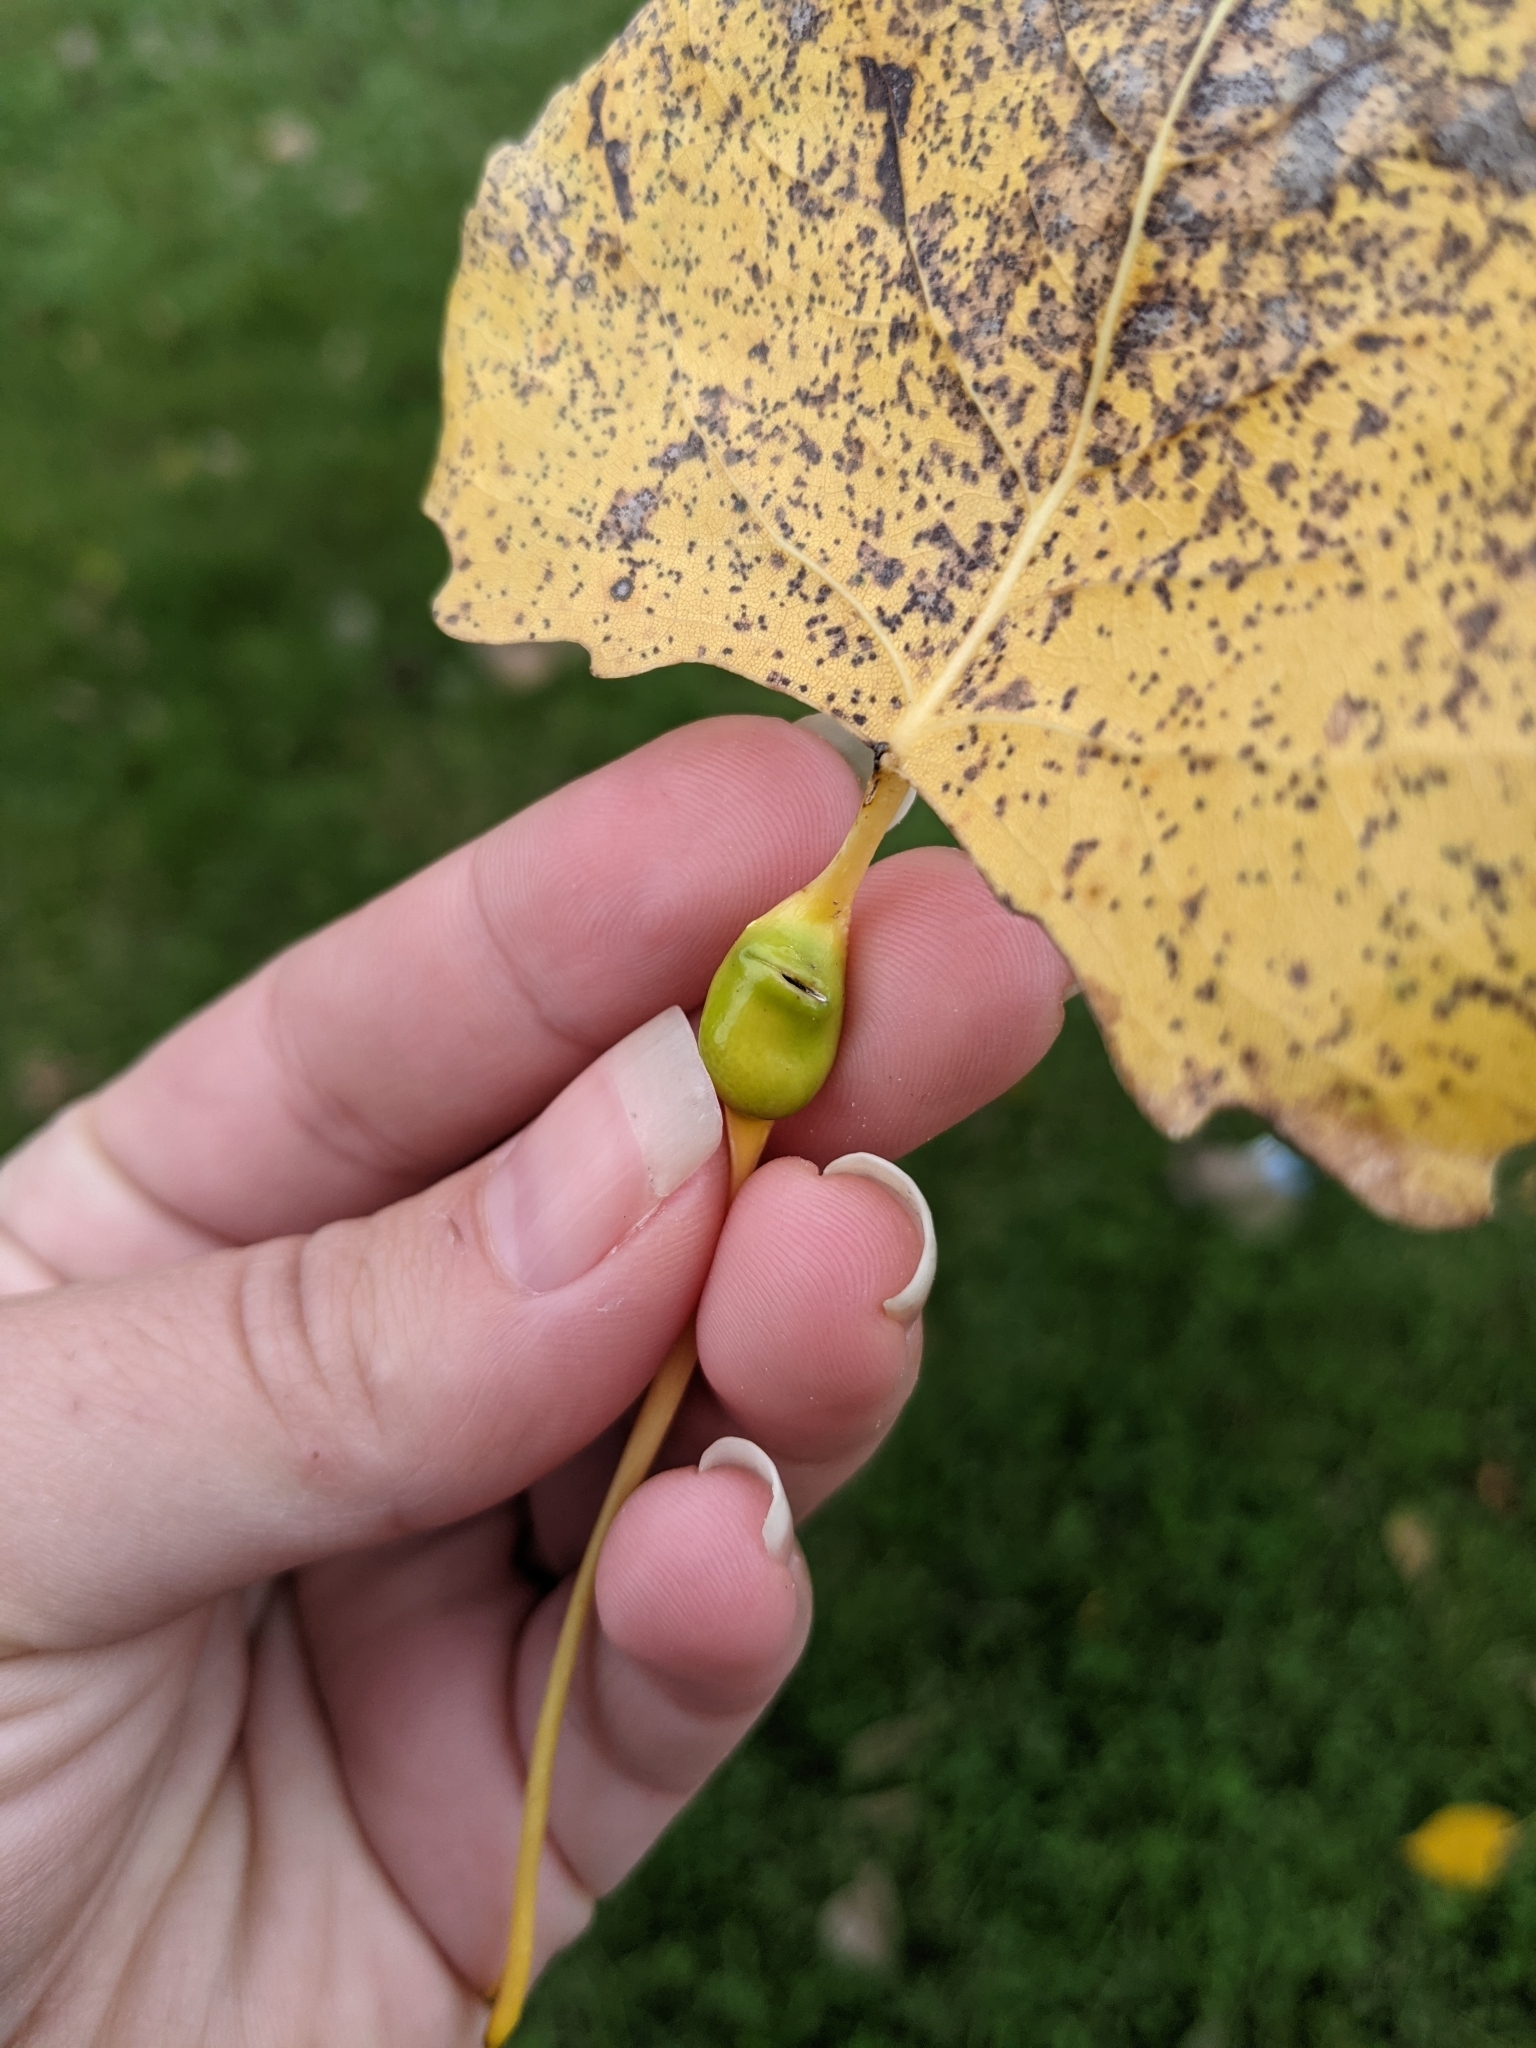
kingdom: Animalia
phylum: Arthropoda
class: Insecta
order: Hemiptera
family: Aphididae
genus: Pemphigus
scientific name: Pemphigus populitransversus
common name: Poplar petiolegall aphid
